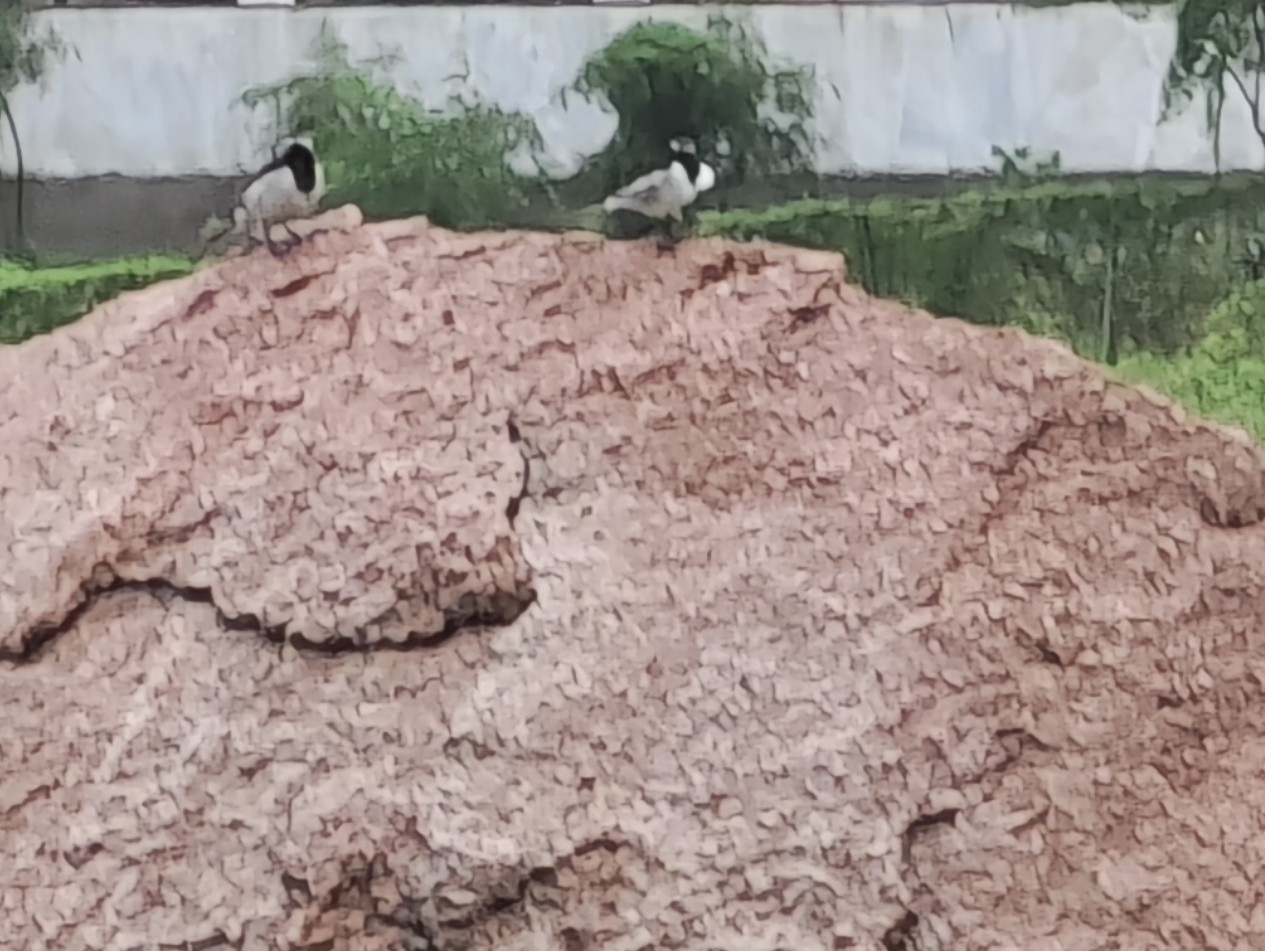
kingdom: Animalia
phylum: Chordata
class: Aves
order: Passeriformes
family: Motacillidae
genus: Motacilla
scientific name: Motacilla maderaspatensis
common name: White-browed wagtail
